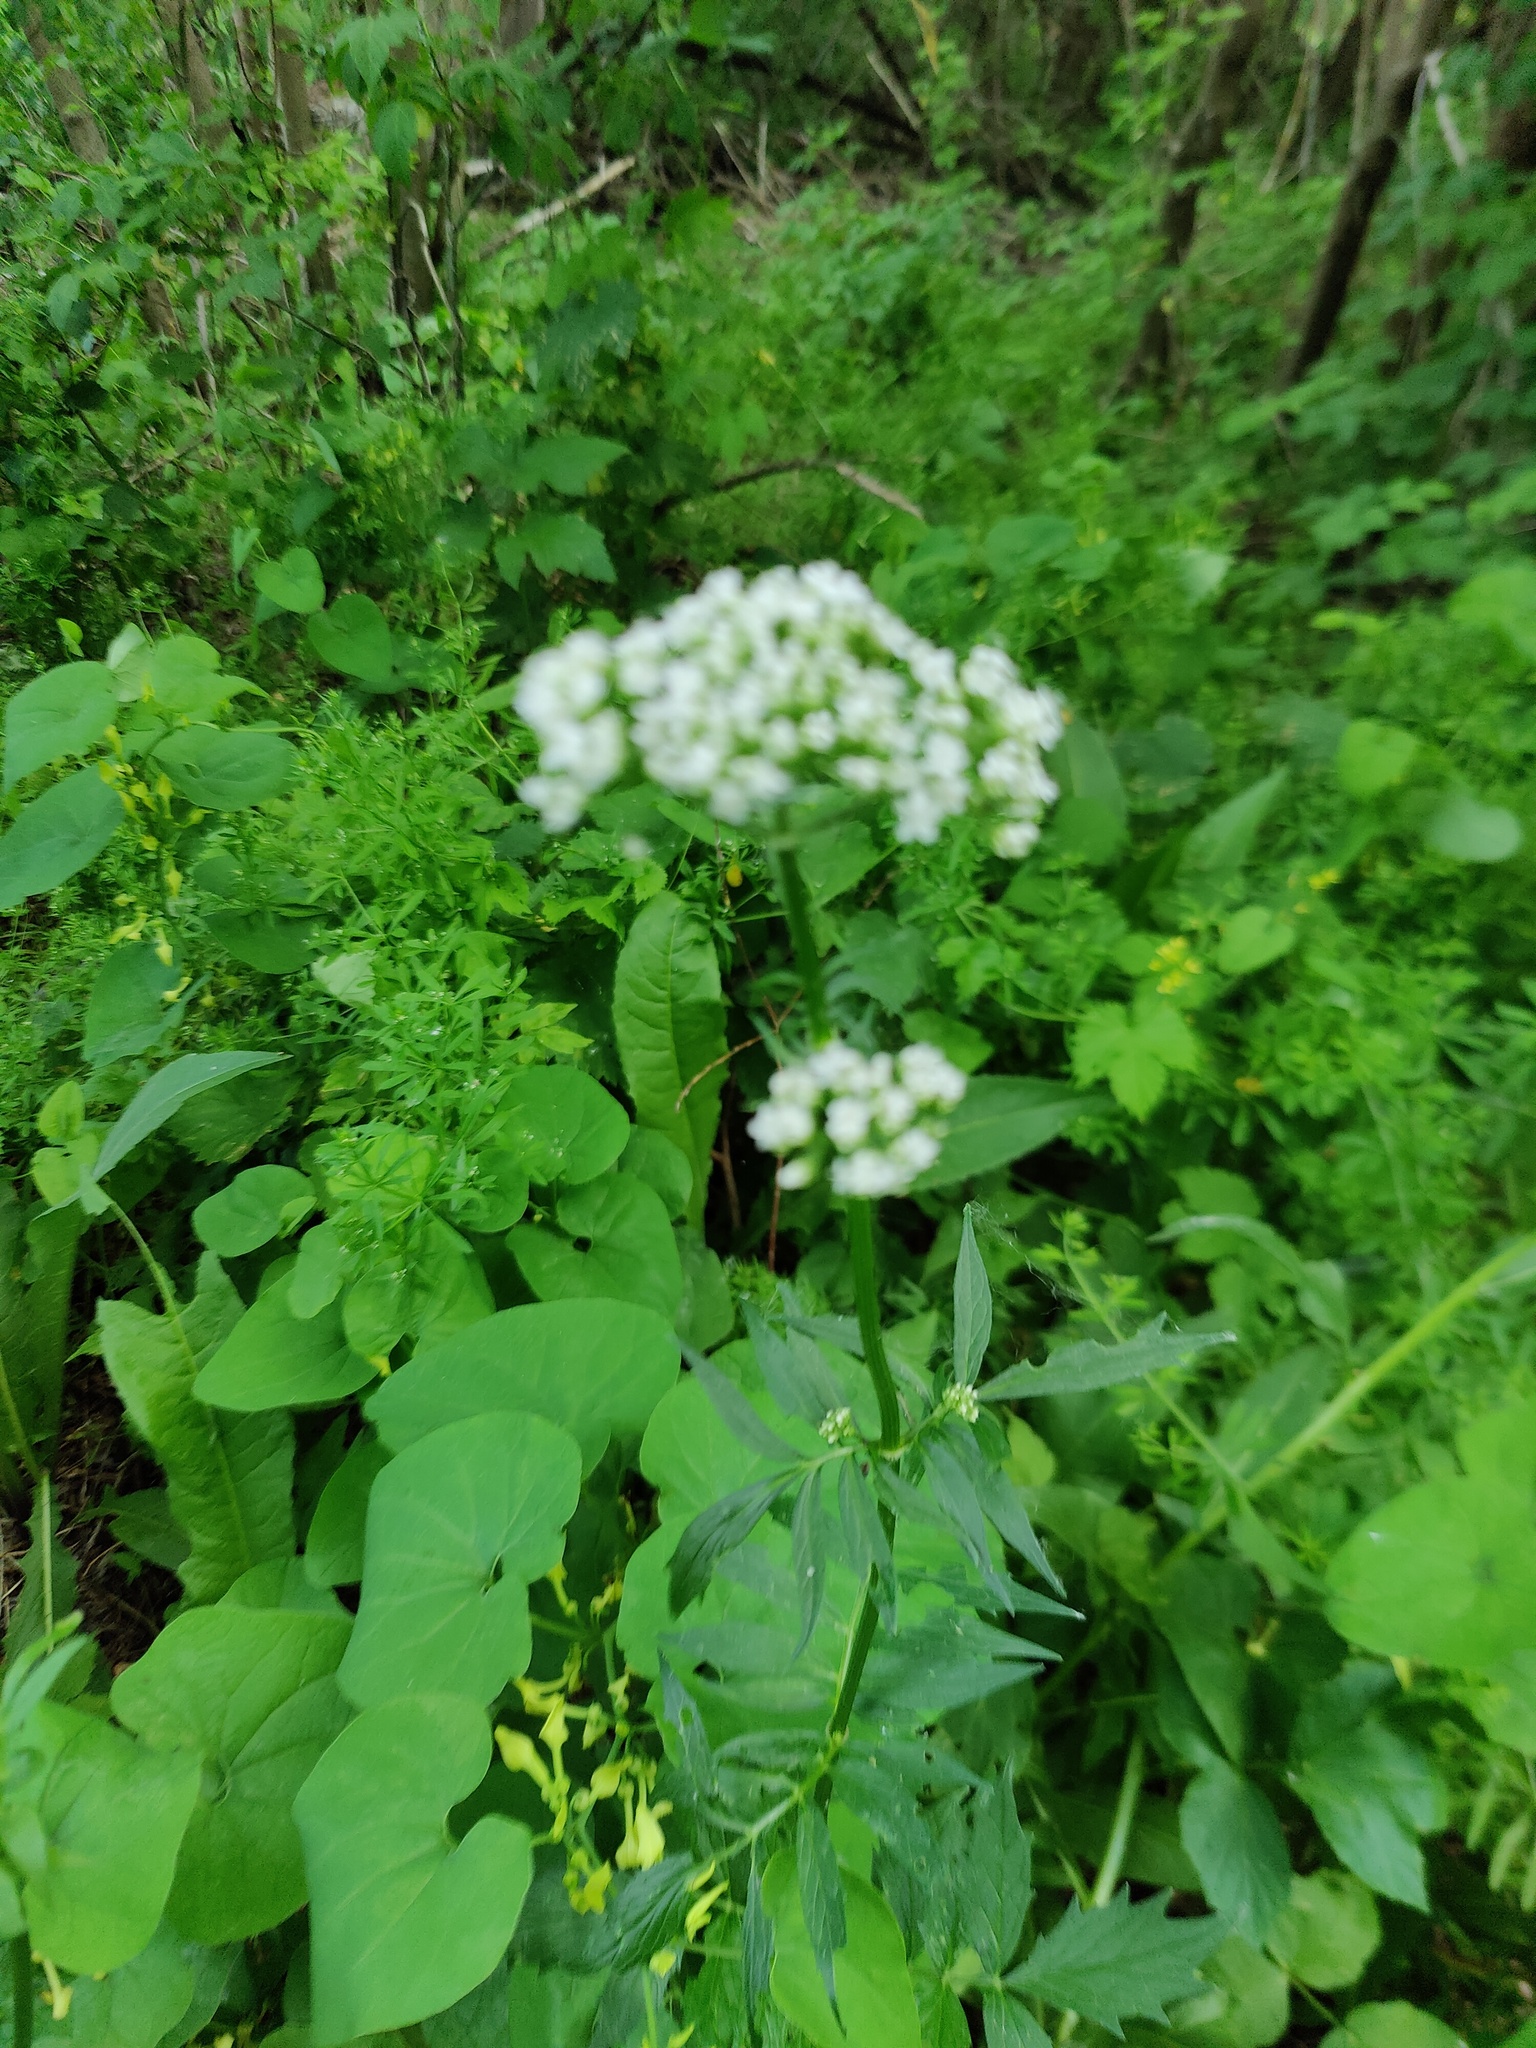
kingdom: Plantae
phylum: Tracheophyta
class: Magnoliopsida
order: Dipsacales
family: Caprifoliaceae
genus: Valeriana
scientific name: Valeriana officinalis
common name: Common valerian
